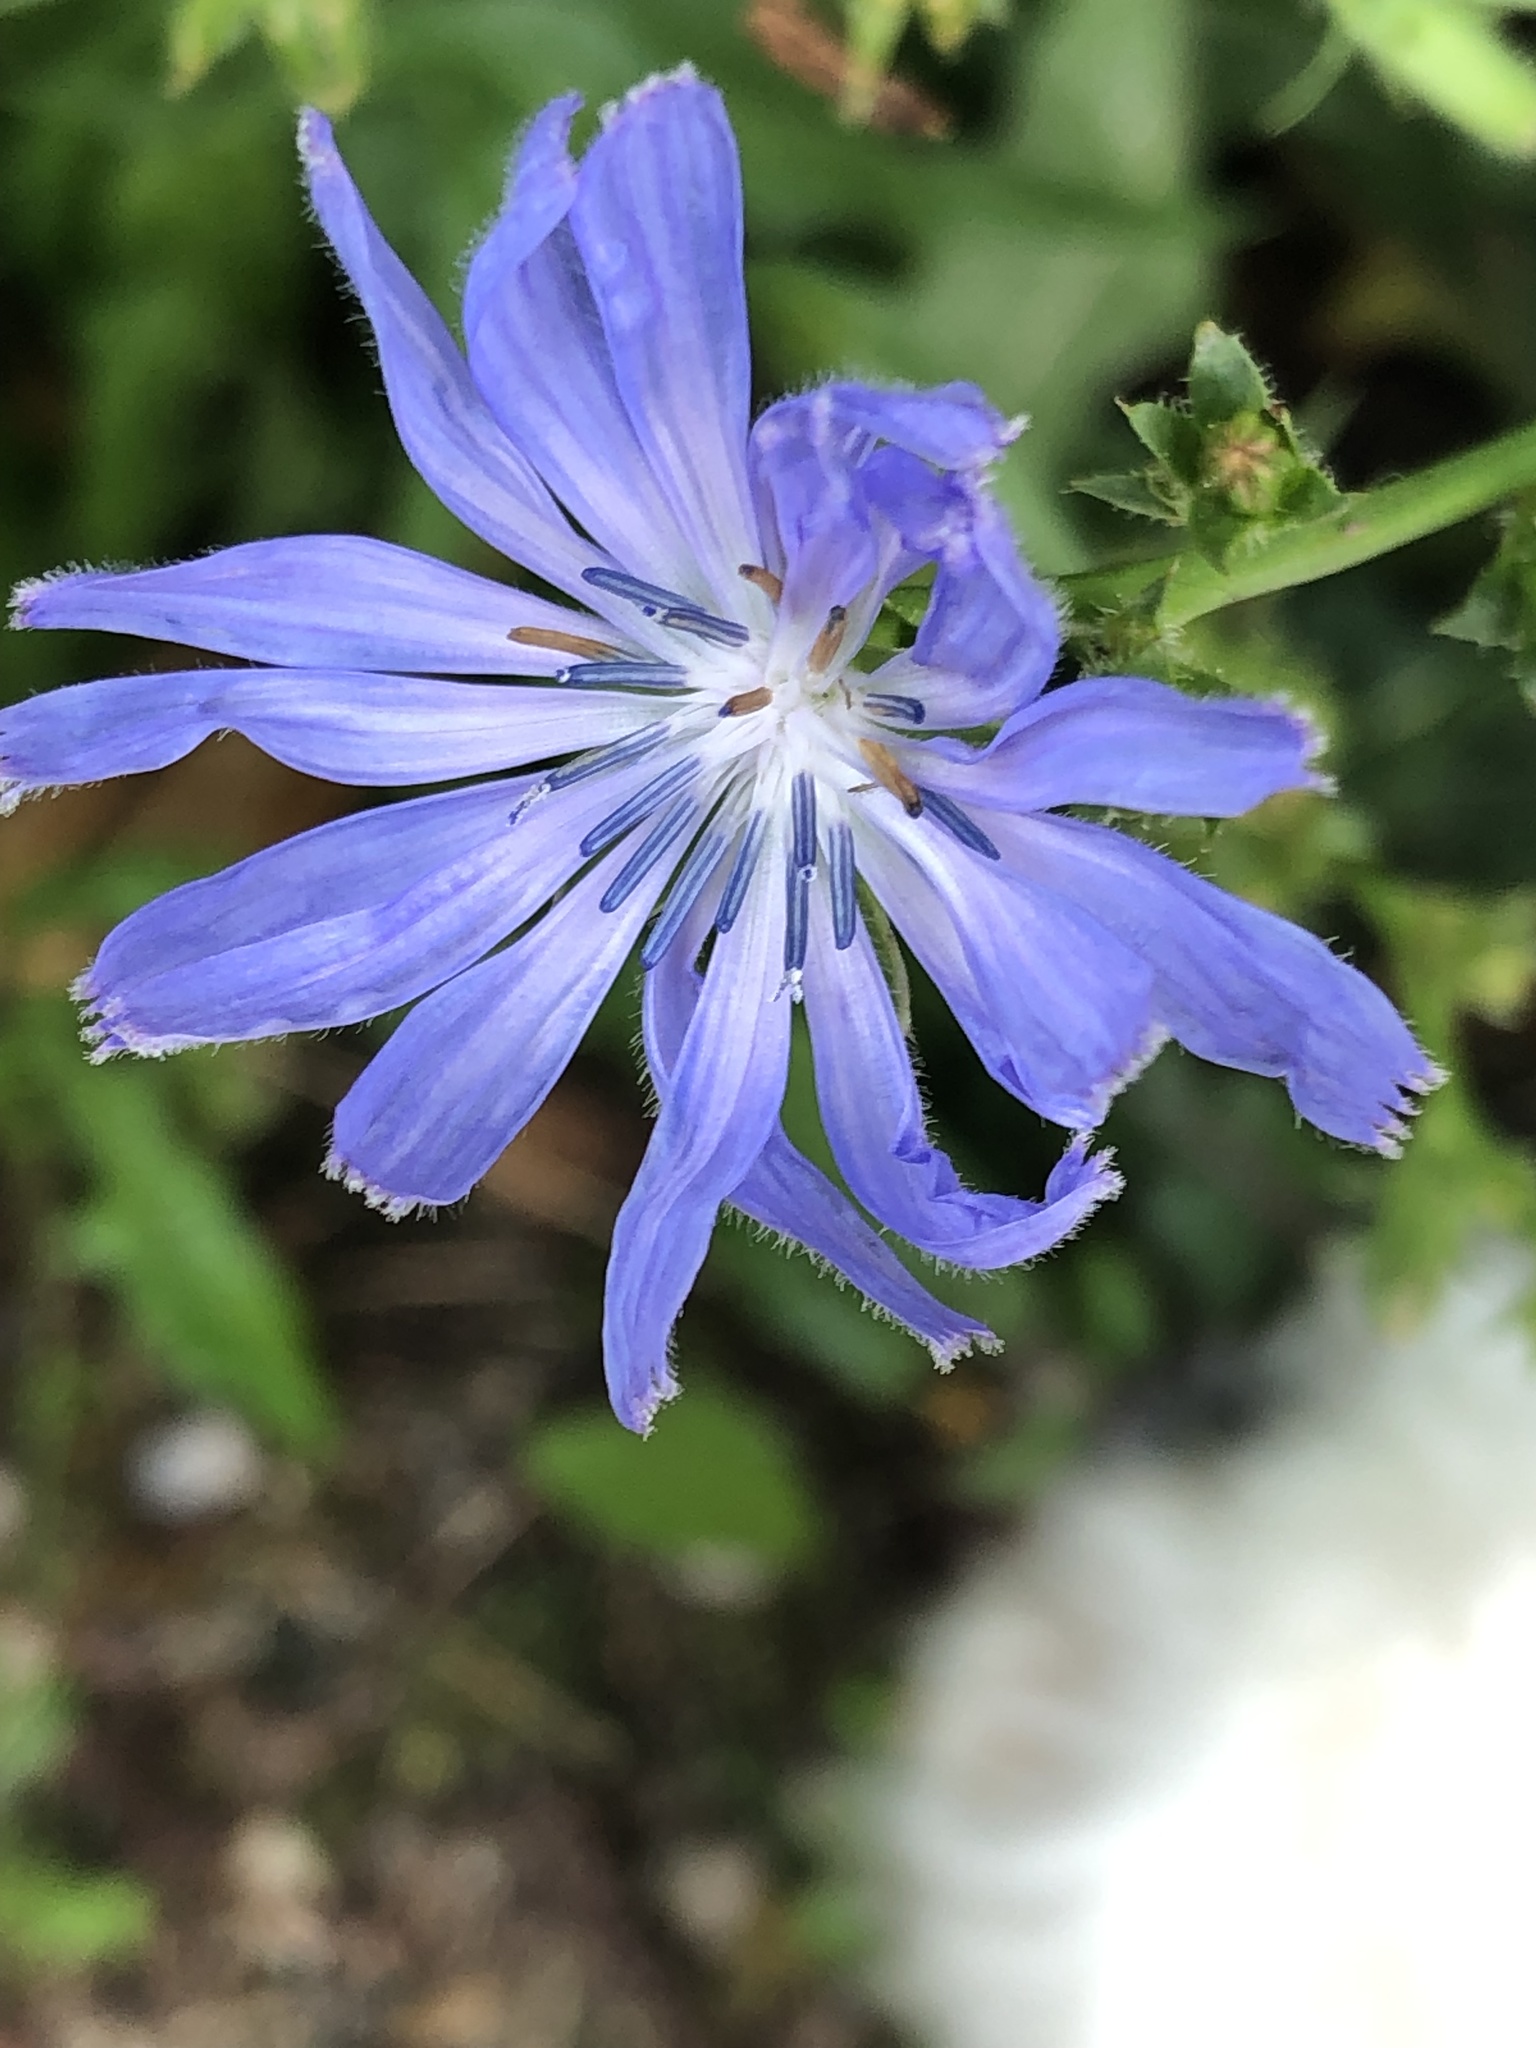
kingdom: Plantae
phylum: Tracheophyta
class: Magnoliopsida
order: Asterales
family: Asteraceae
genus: Cichorium
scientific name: Cichorium intybus
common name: Chicory
